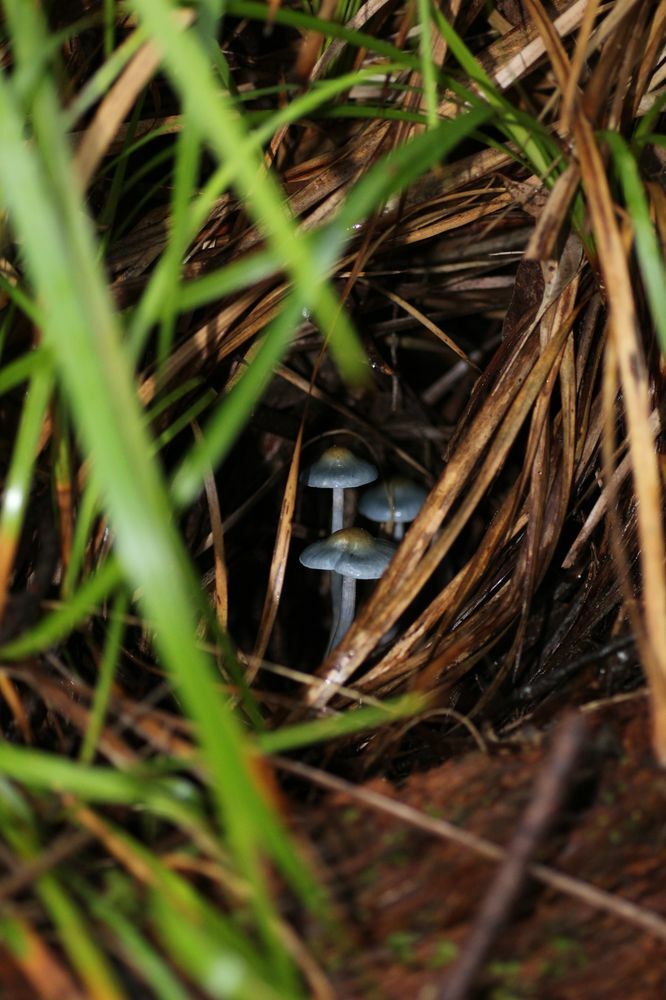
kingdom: Fungi
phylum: Basidiomycota
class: Agaricomycetes
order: Agaricales
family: Cortinariaceae
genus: Cortinarius
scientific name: Cortinarius rotundisporus
